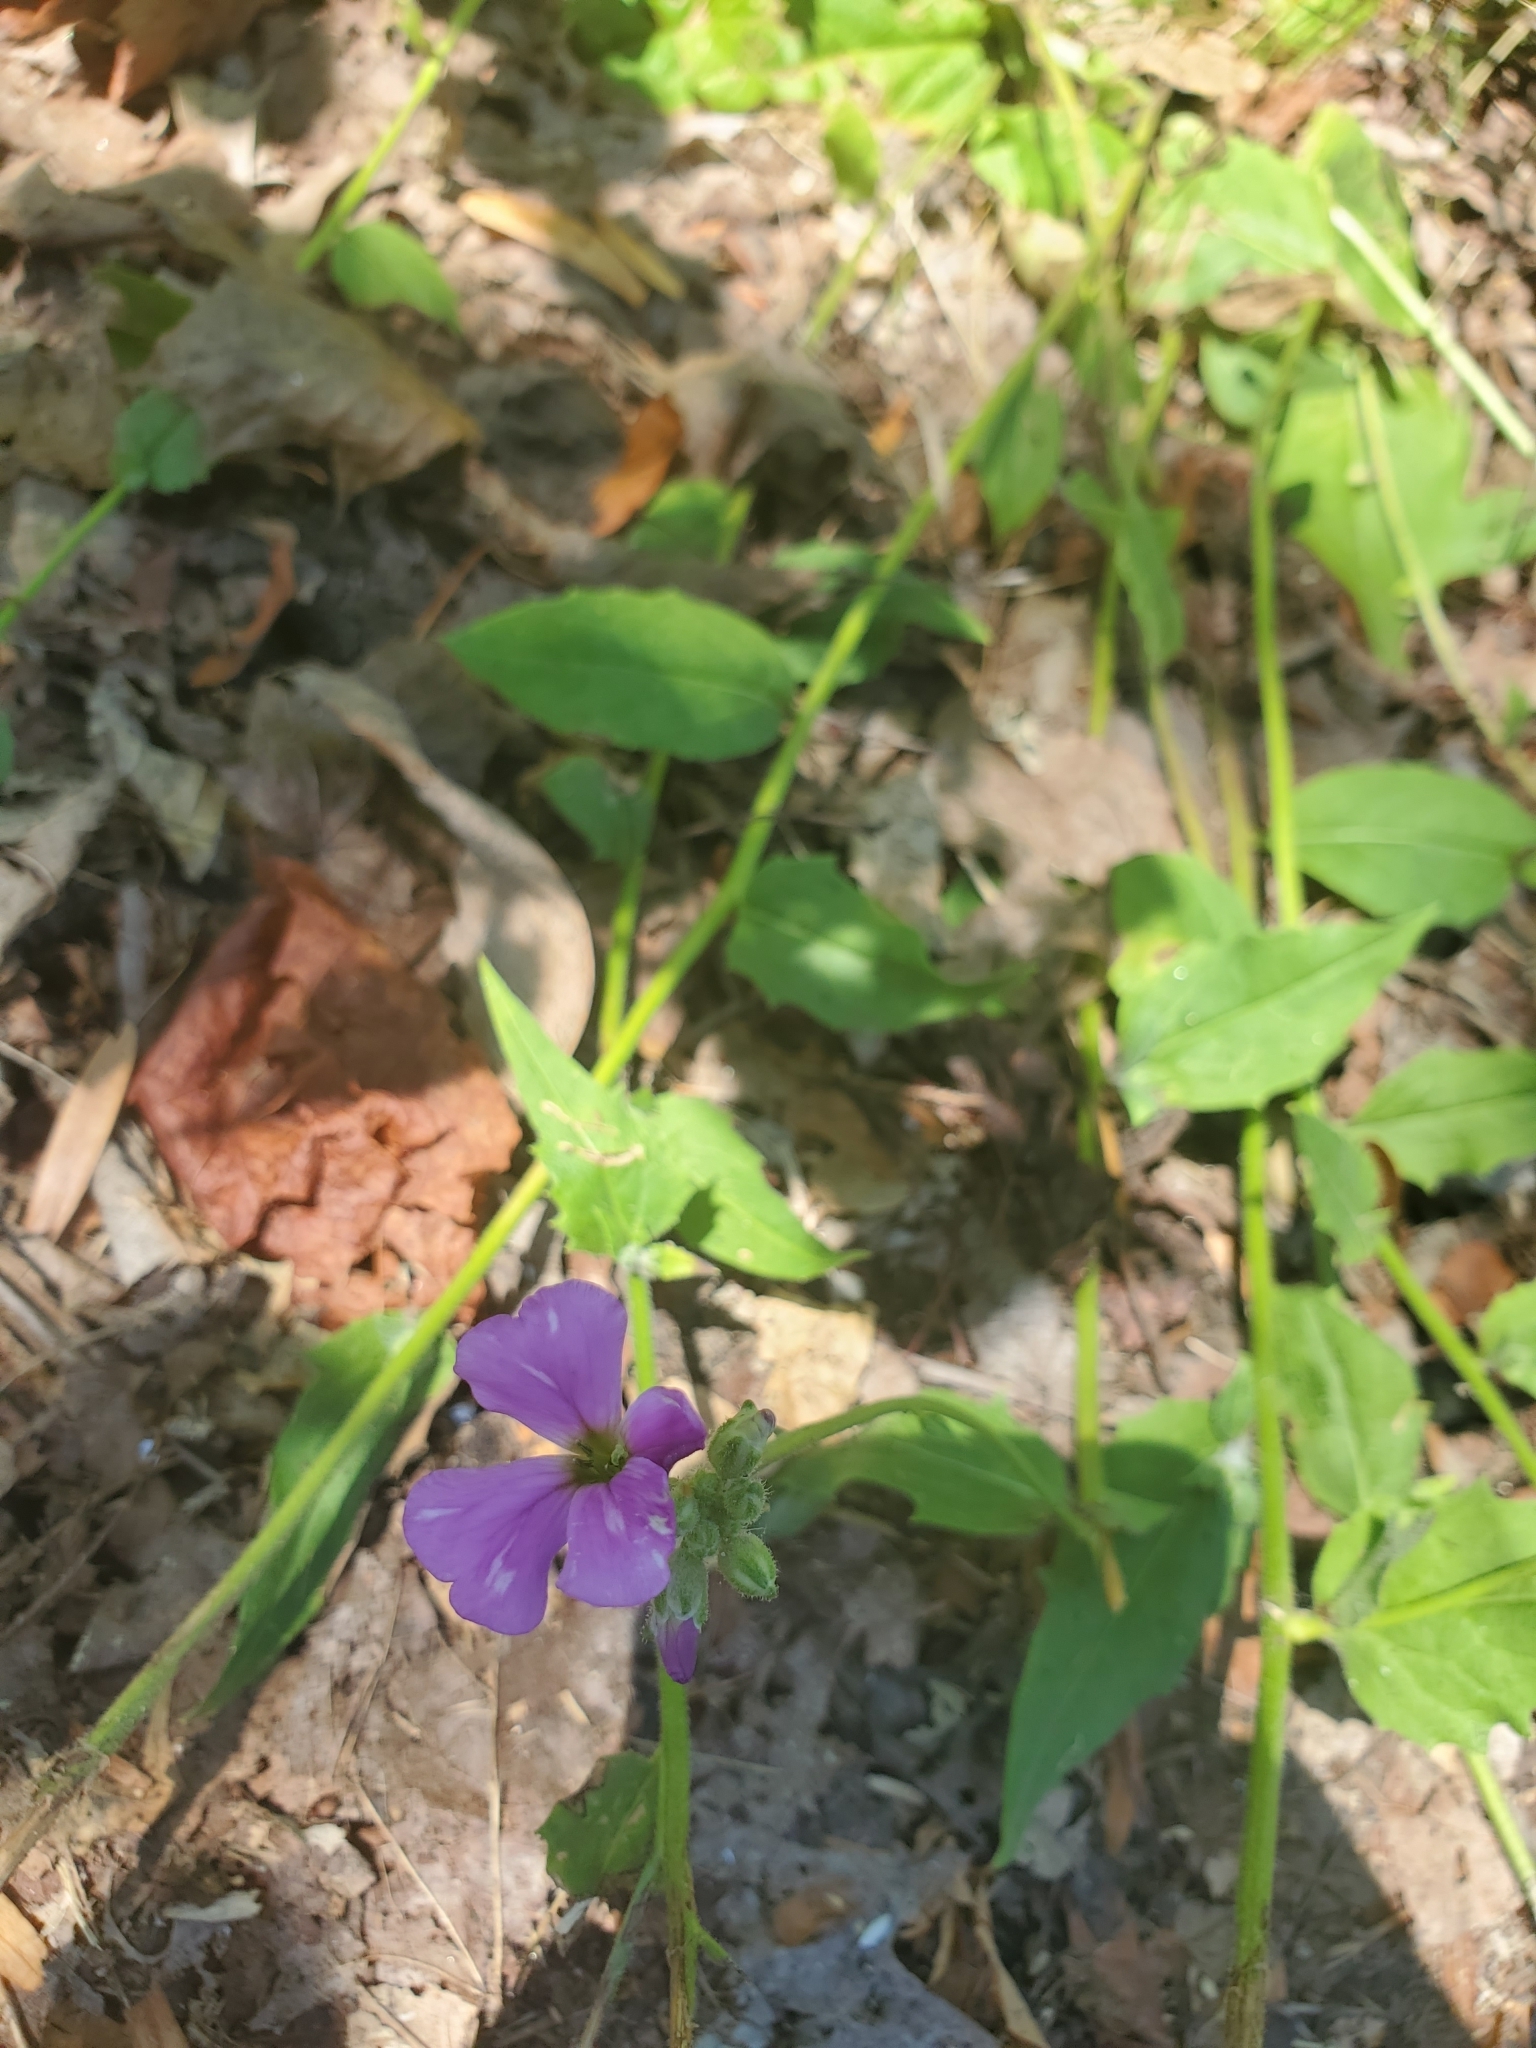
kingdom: Plantae
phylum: Tracheophyta
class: Magnoliopsida
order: Brassicales
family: Brassicaceae
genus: Hesperis
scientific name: Hesperis matronalis
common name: Dame's-violet
